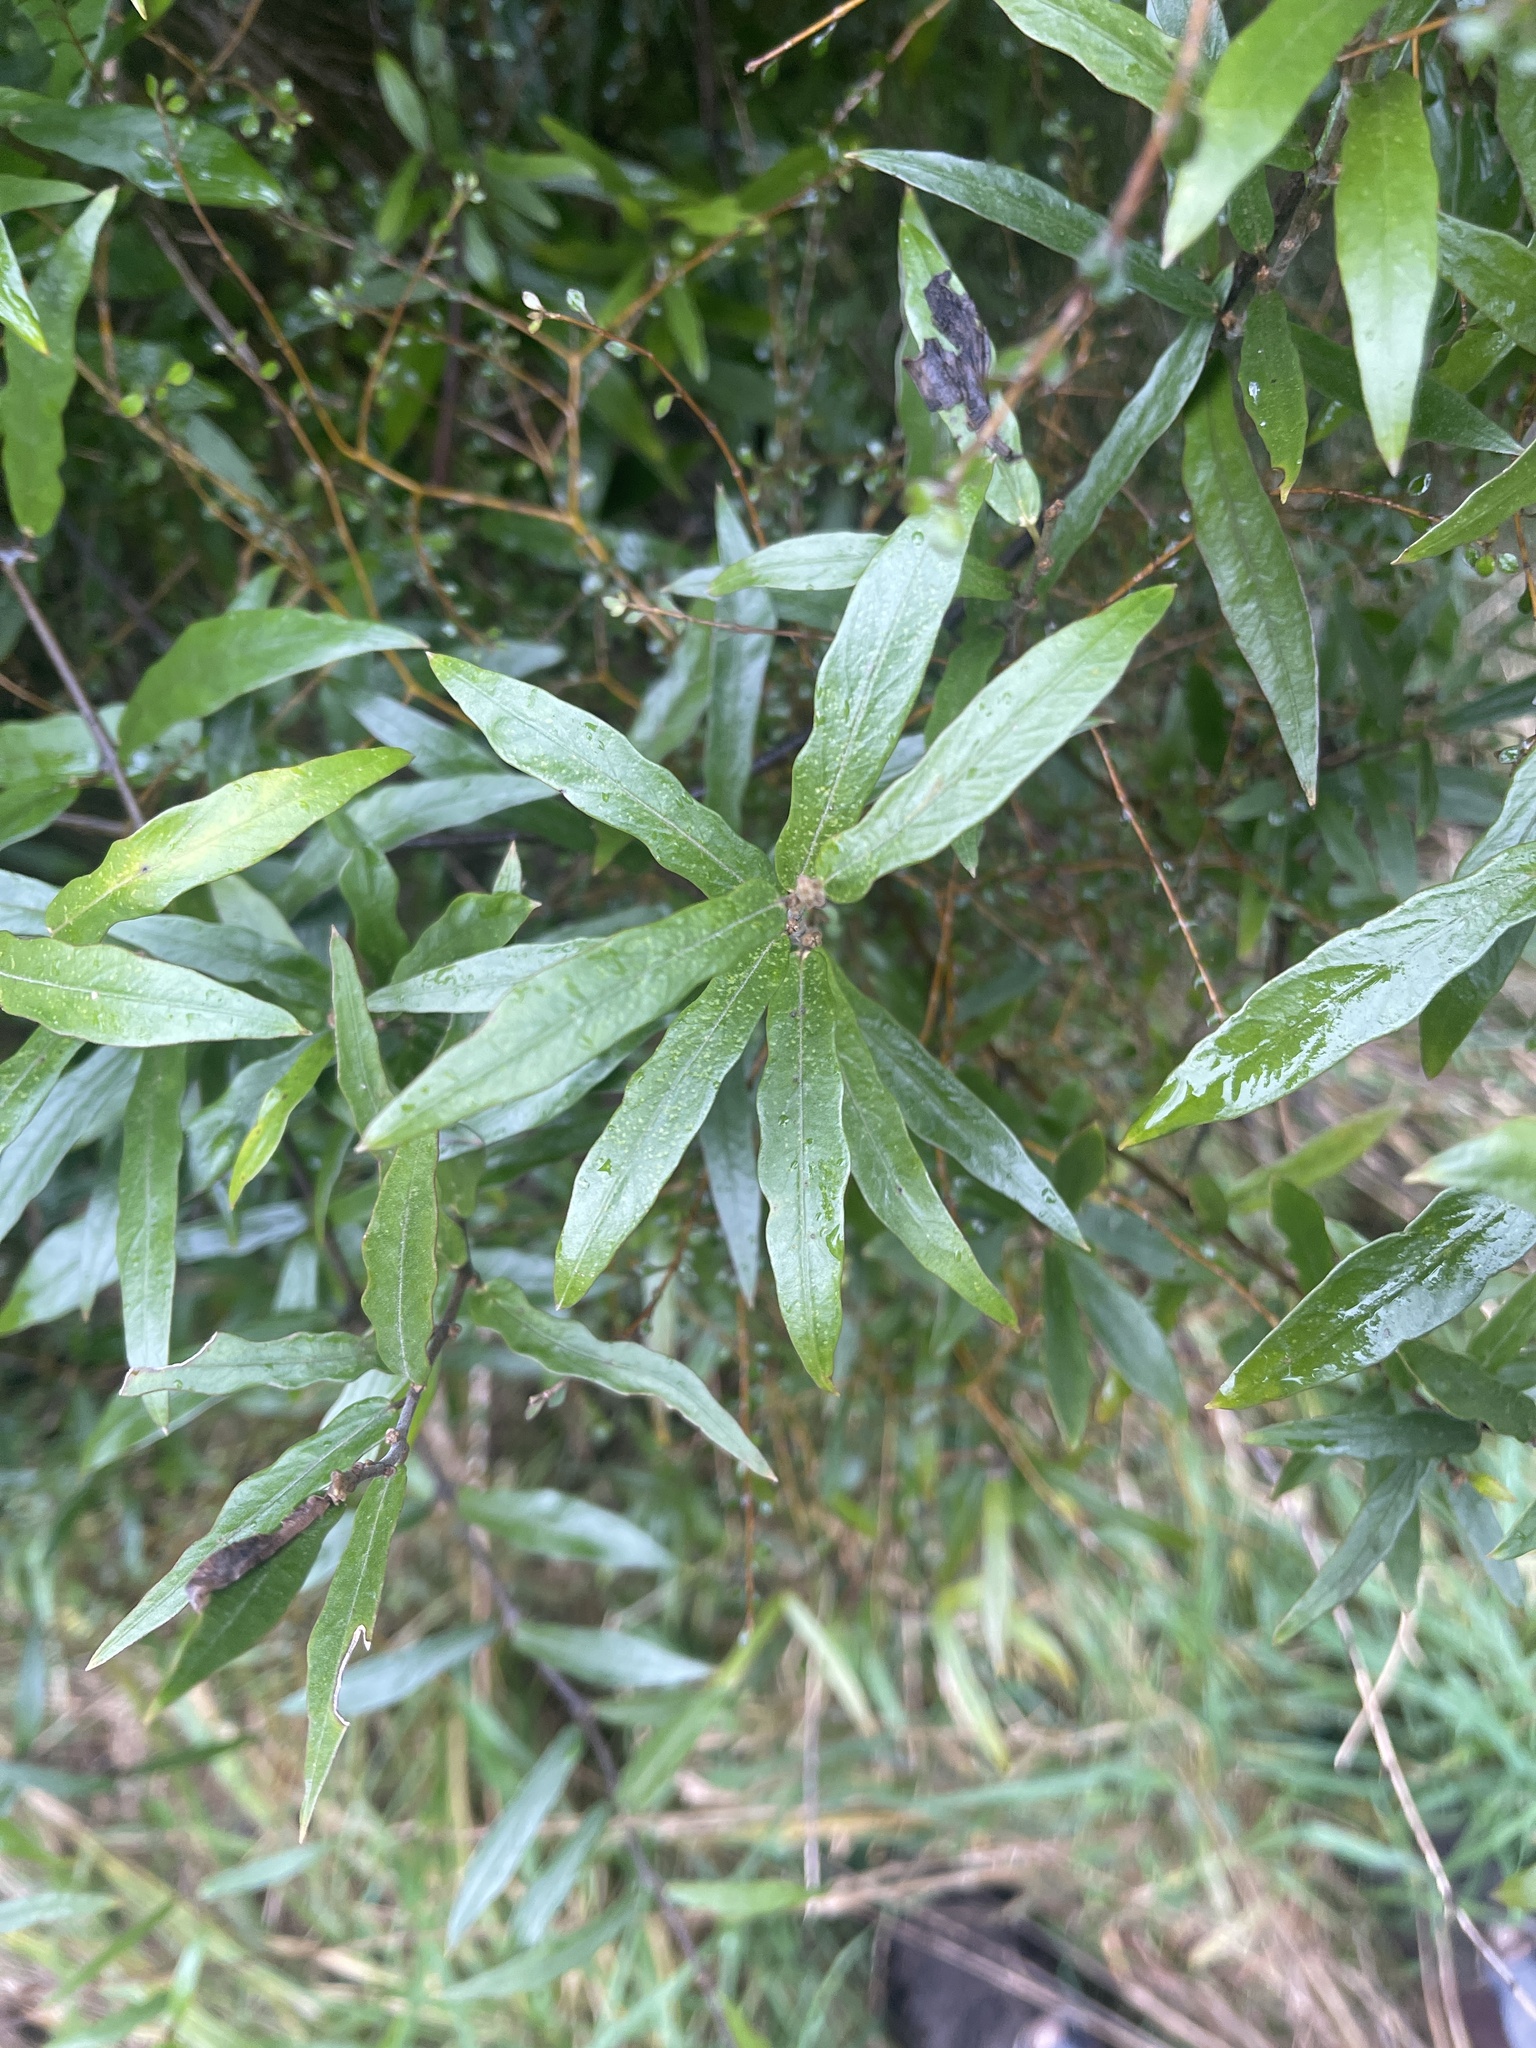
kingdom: Plantae
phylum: Tracheophyta
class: Magnoliopsida
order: Gentianales
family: Apocynaceae
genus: Parsonsia
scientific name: Parsonsia heterophylla
